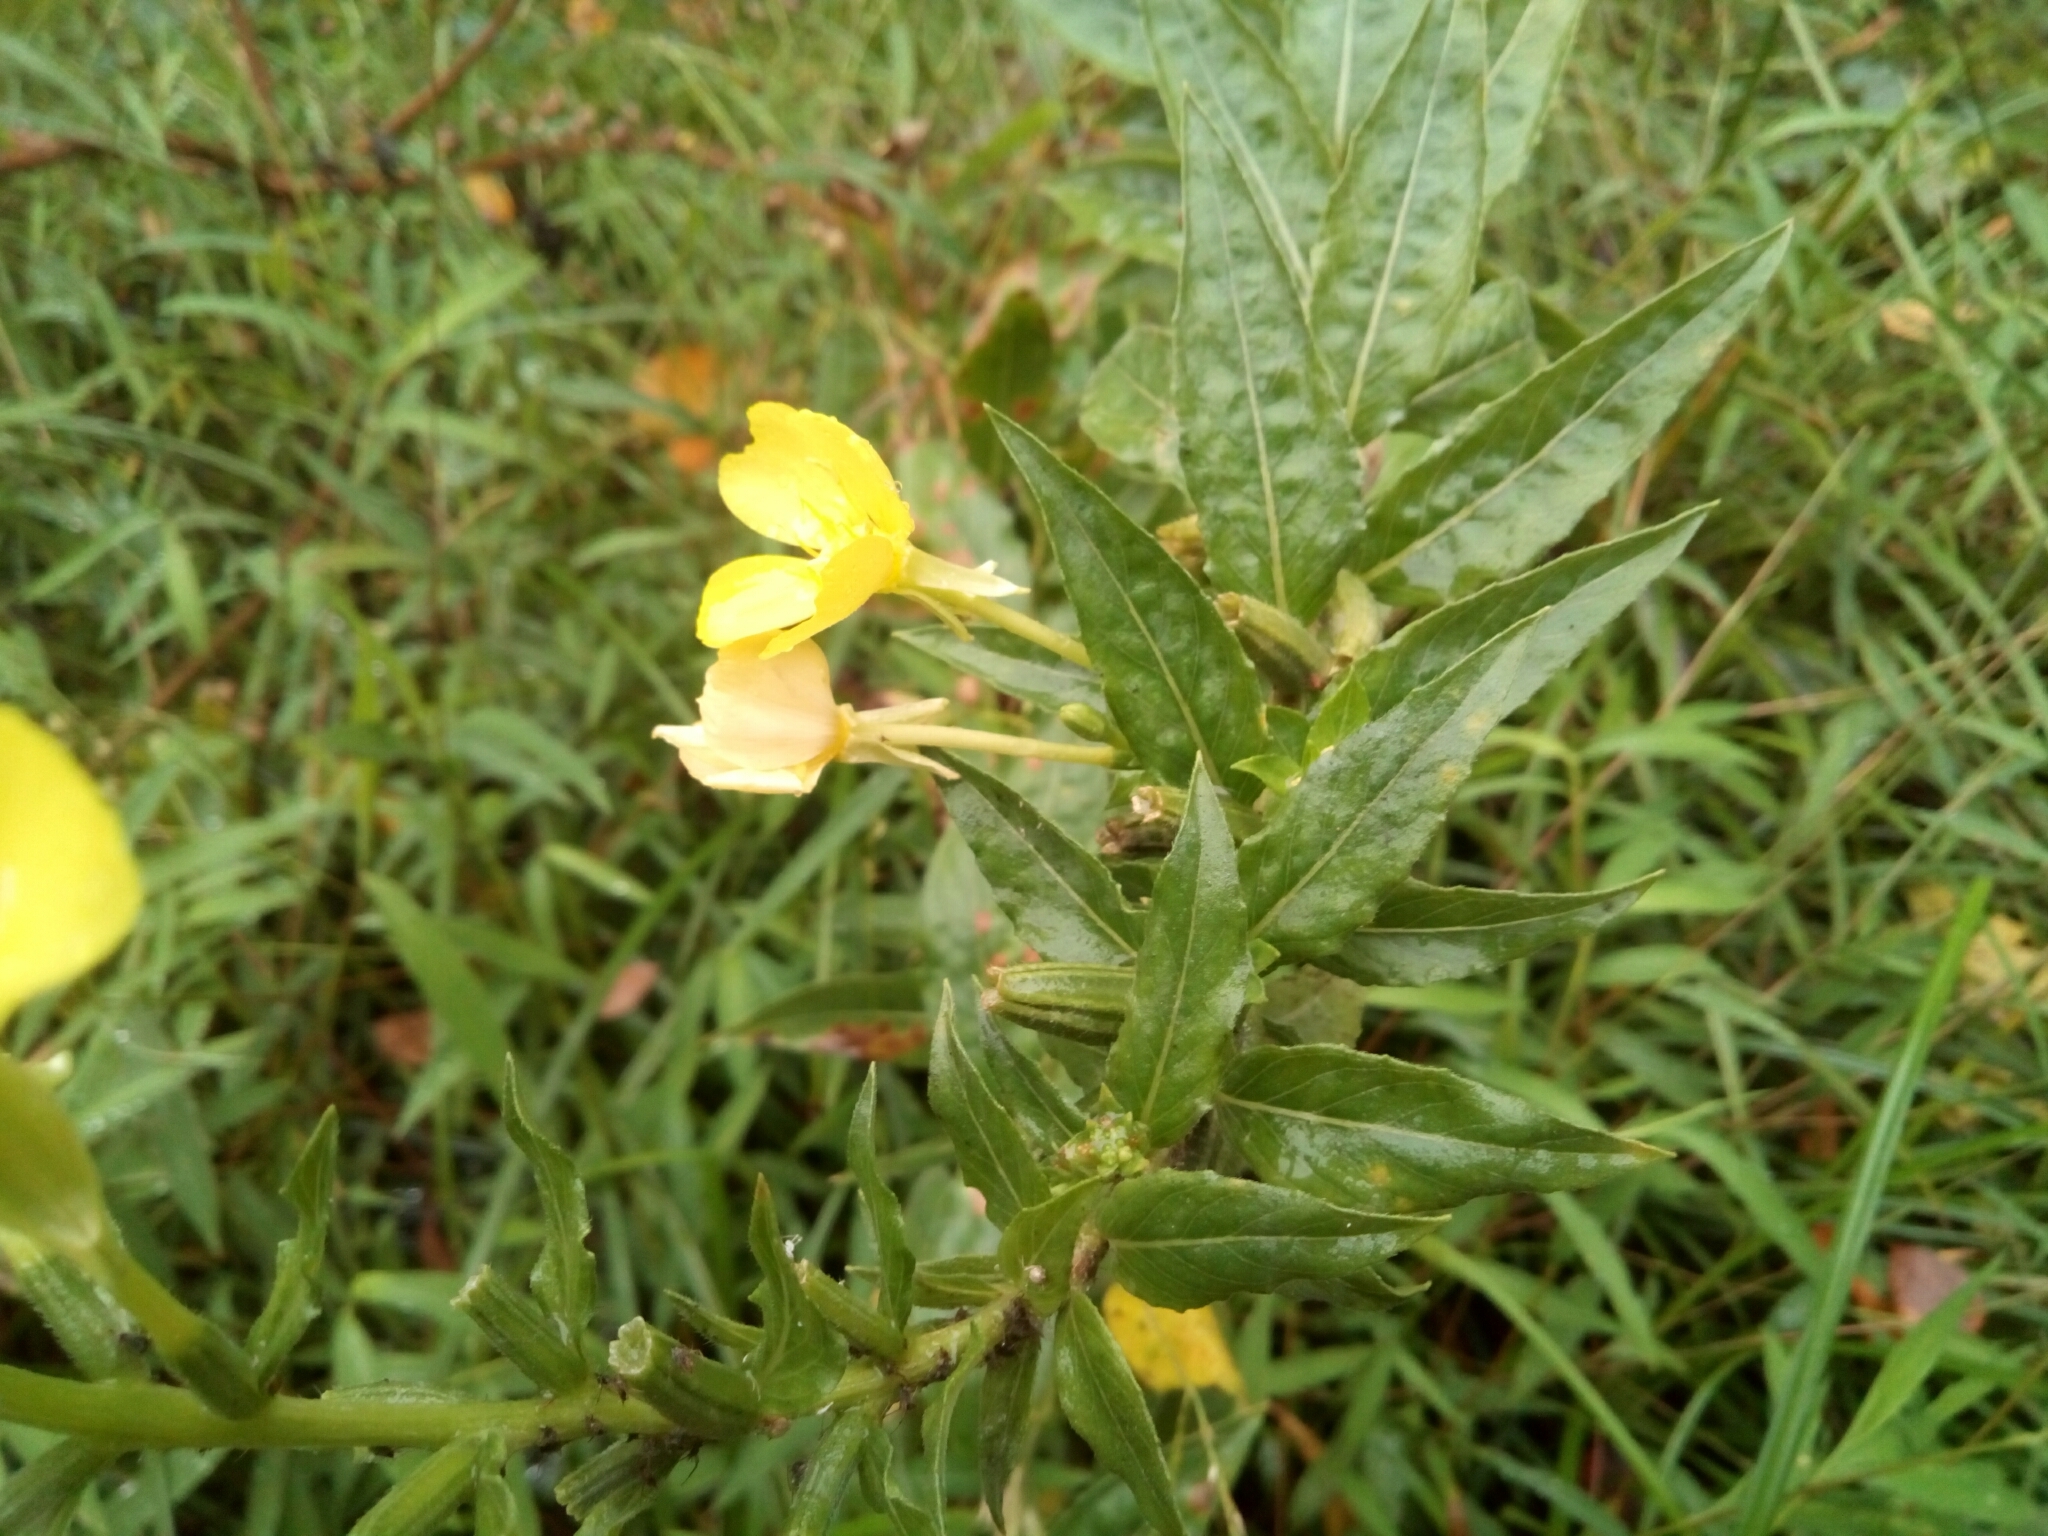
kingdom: Plantae
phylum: Tracheophyta
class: Magnoliopsida
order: Myrtales
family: Onagraceae
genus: Oenothera
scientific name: Oenothera biennis
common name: Common evening-primrose
